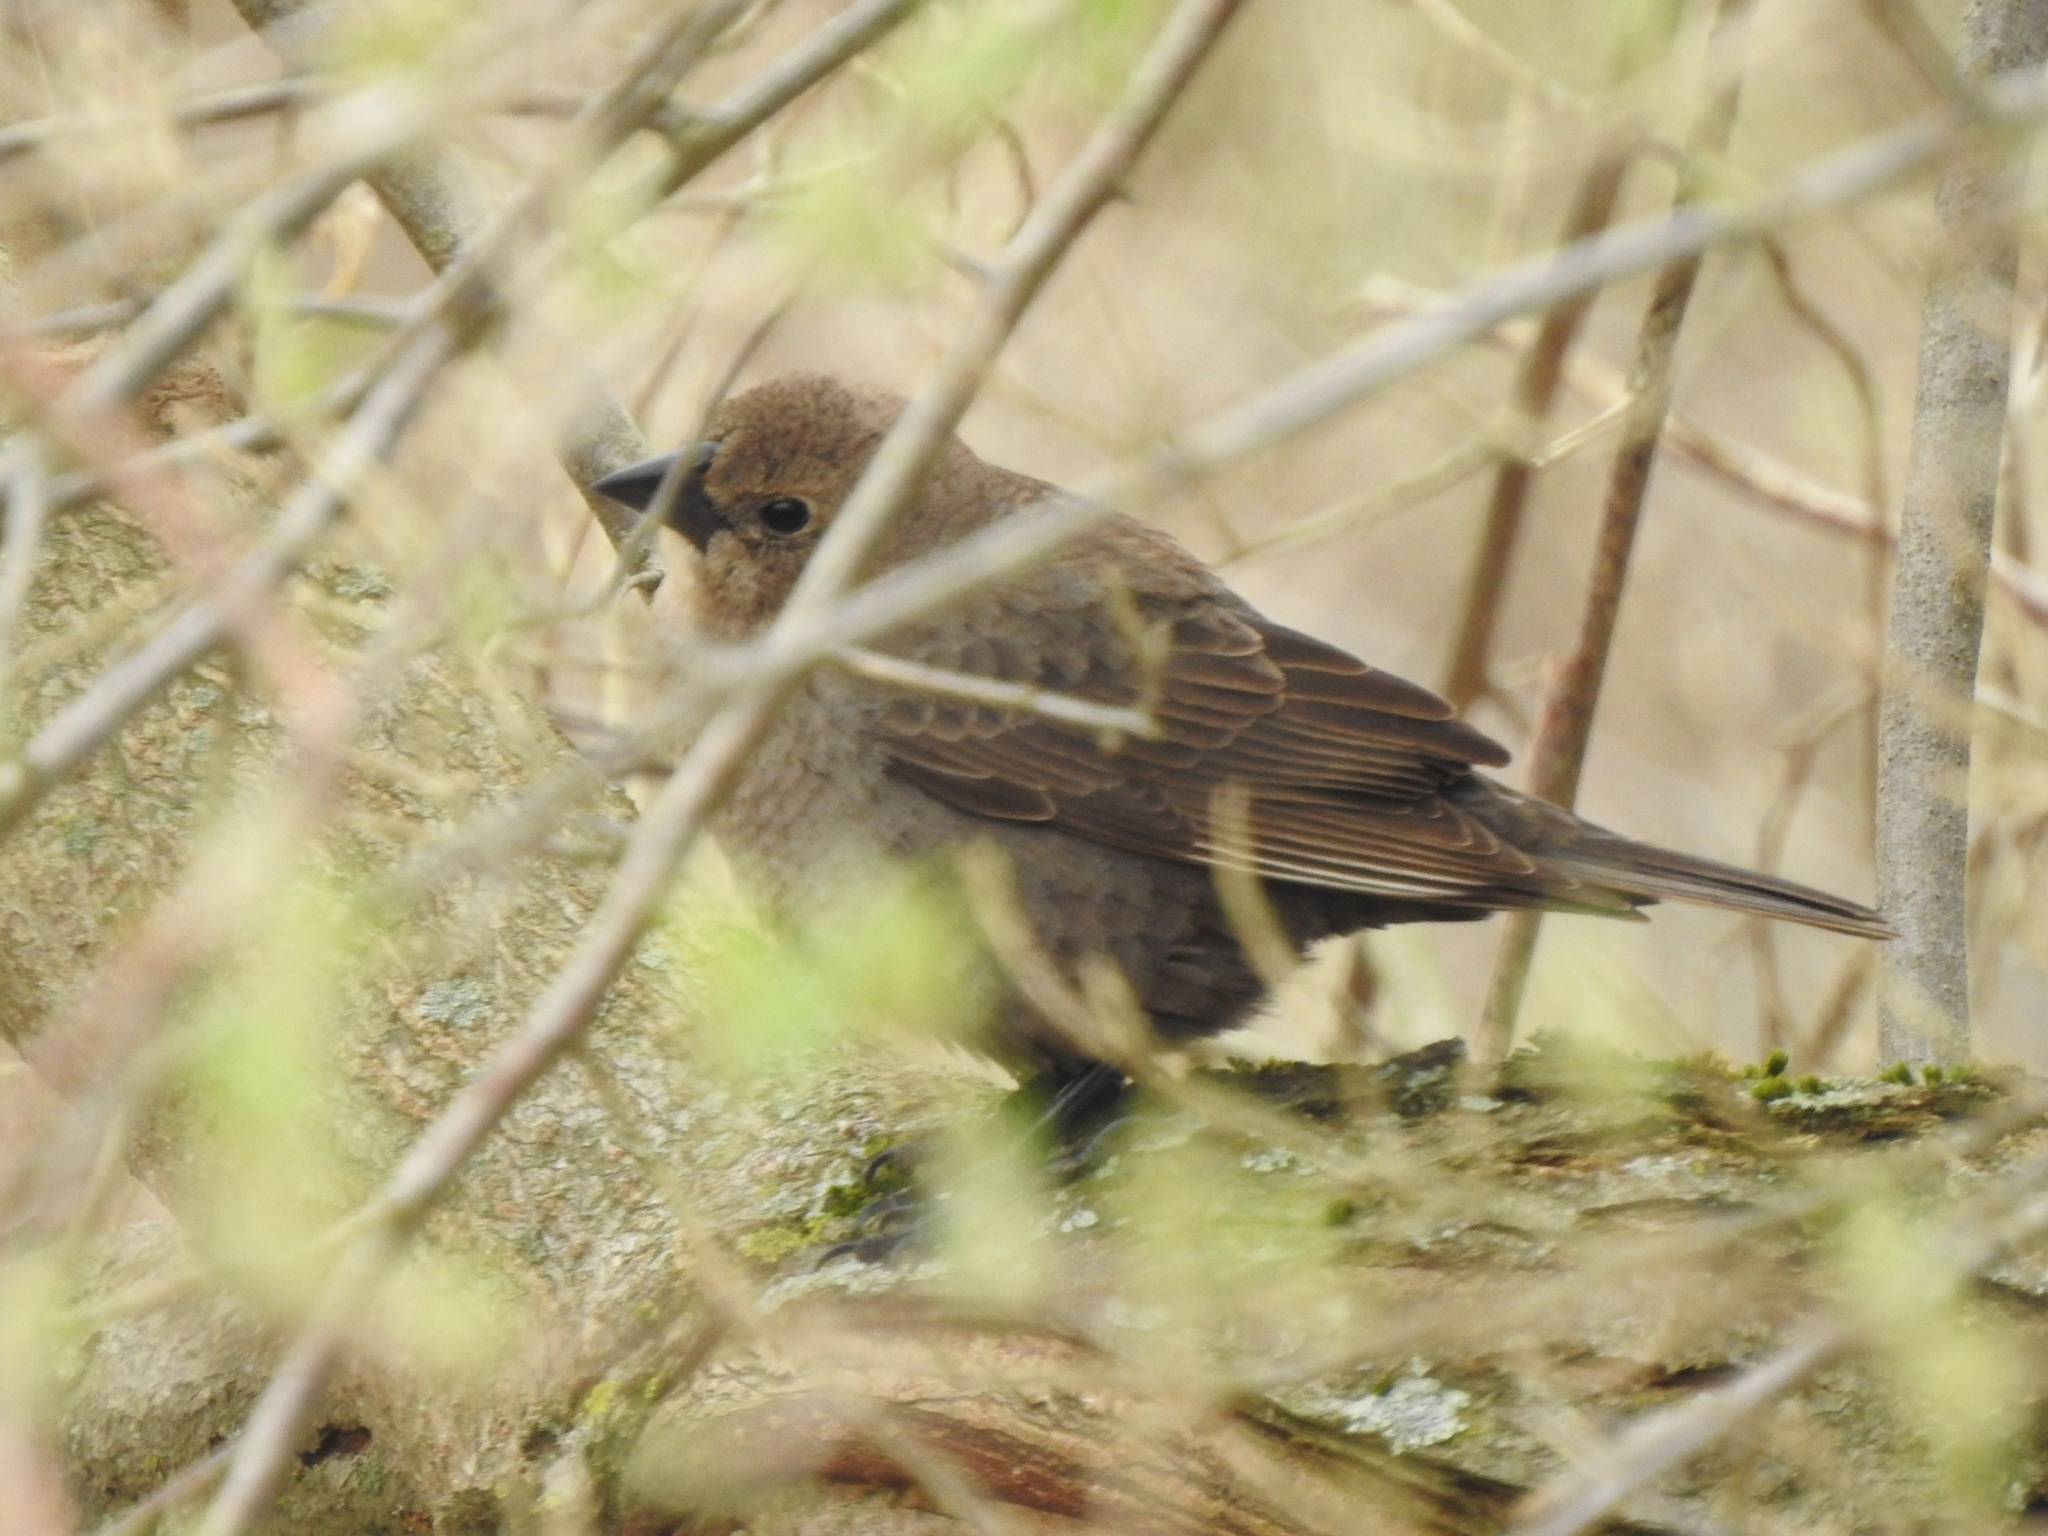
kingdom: Animalia
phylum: Chordata
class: Aves
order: Passeriformes
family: Icteridae
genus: Molothrus
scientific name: Molothrus ater
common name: Brown-headed cowbird
